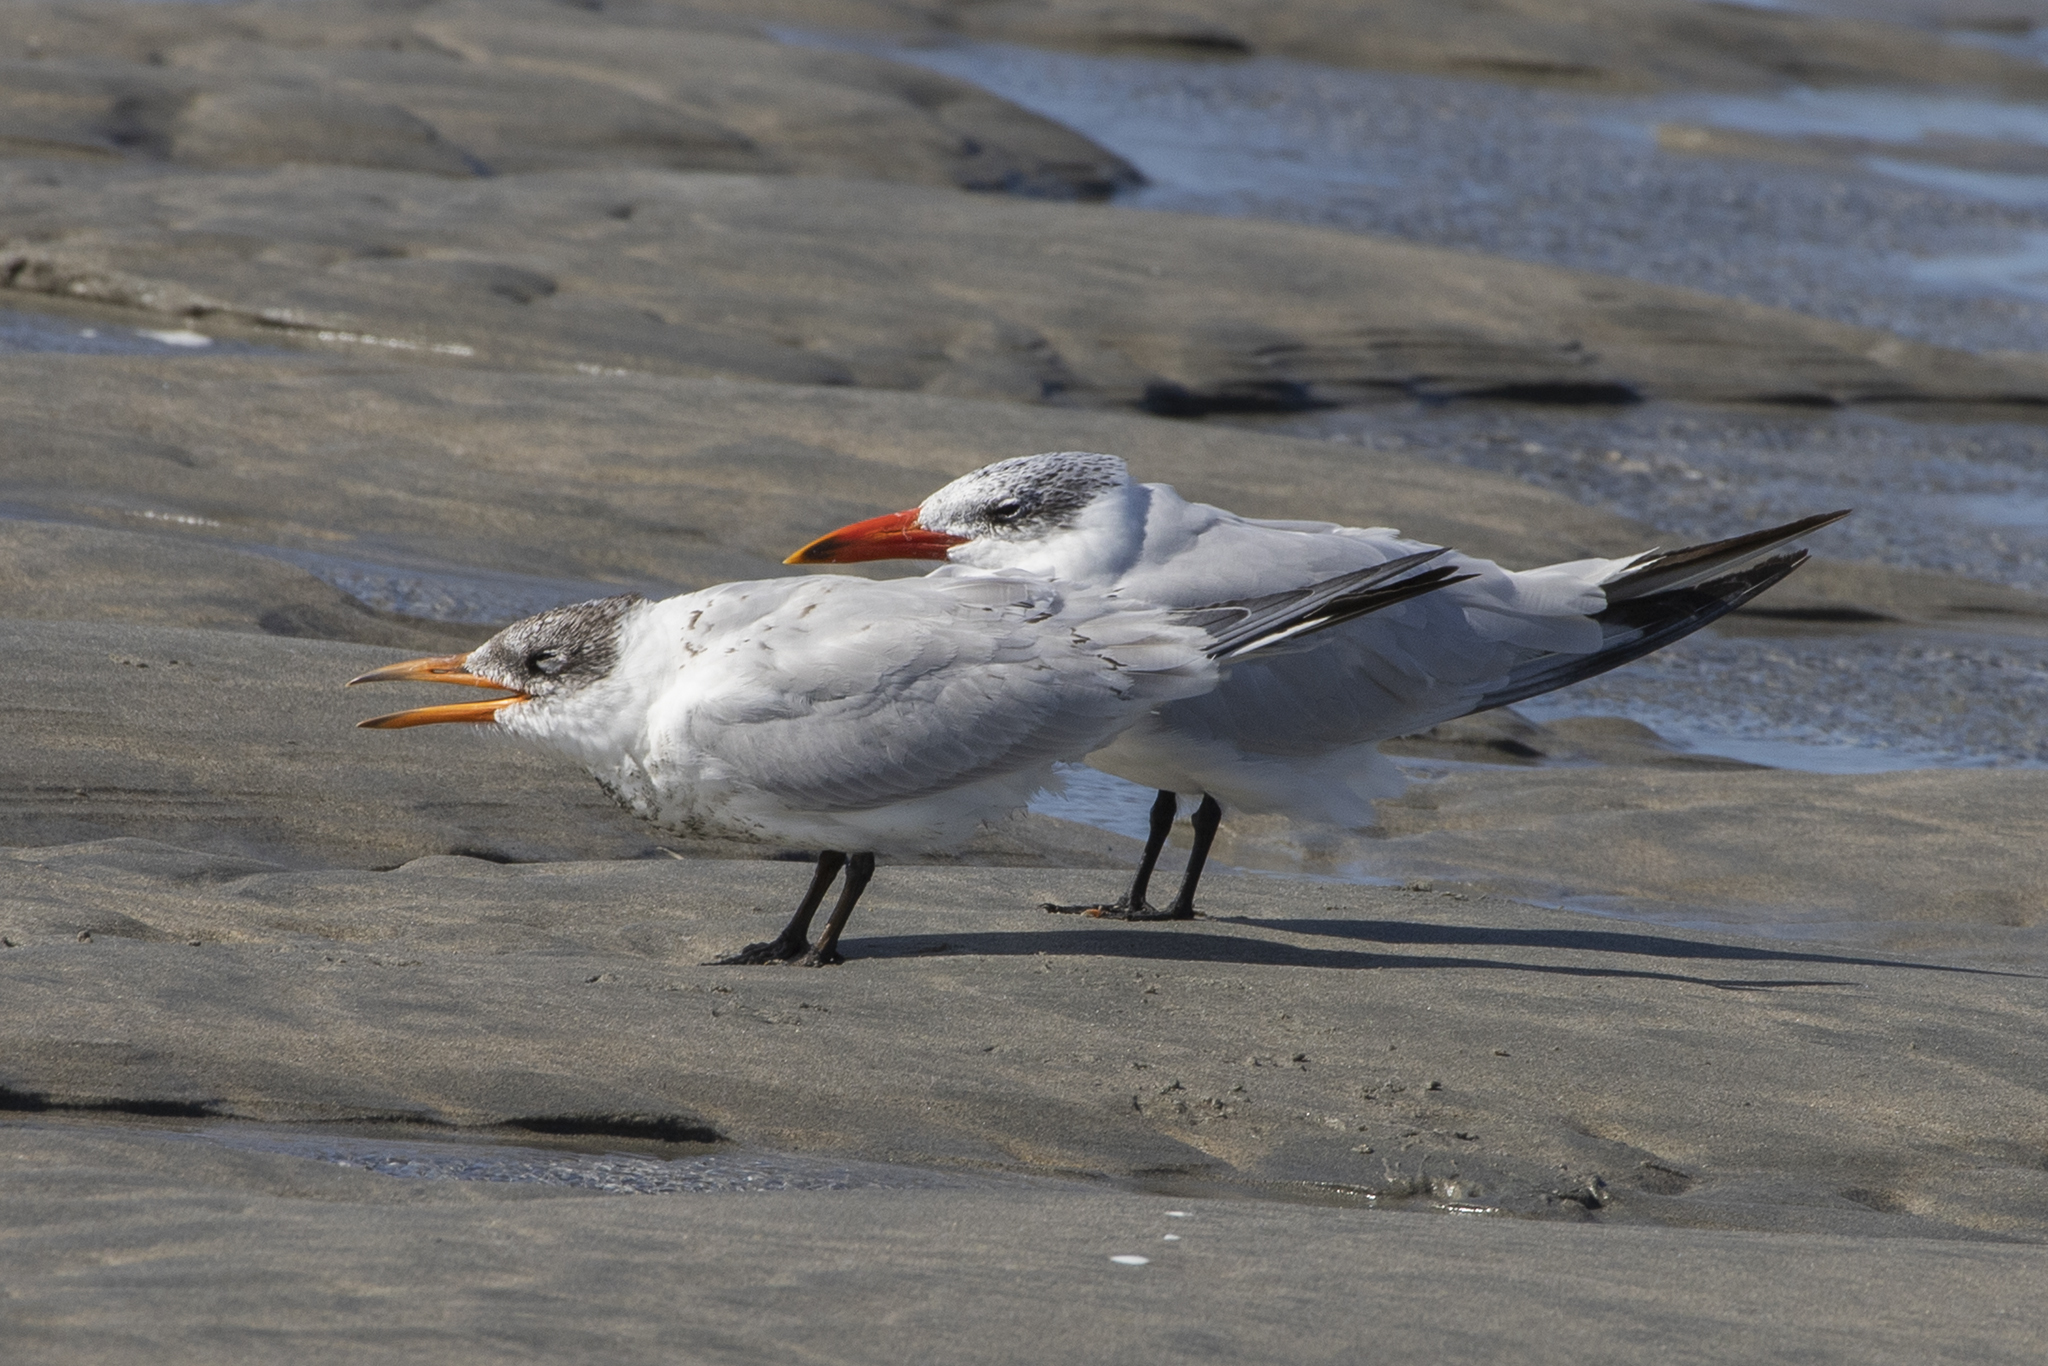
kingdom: Animalia
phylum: Chordata
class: Aves
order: Charadriiformes
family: Laridae
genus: Hydroprogne
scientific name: Hydroprogne caspia
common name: Caspian tern
